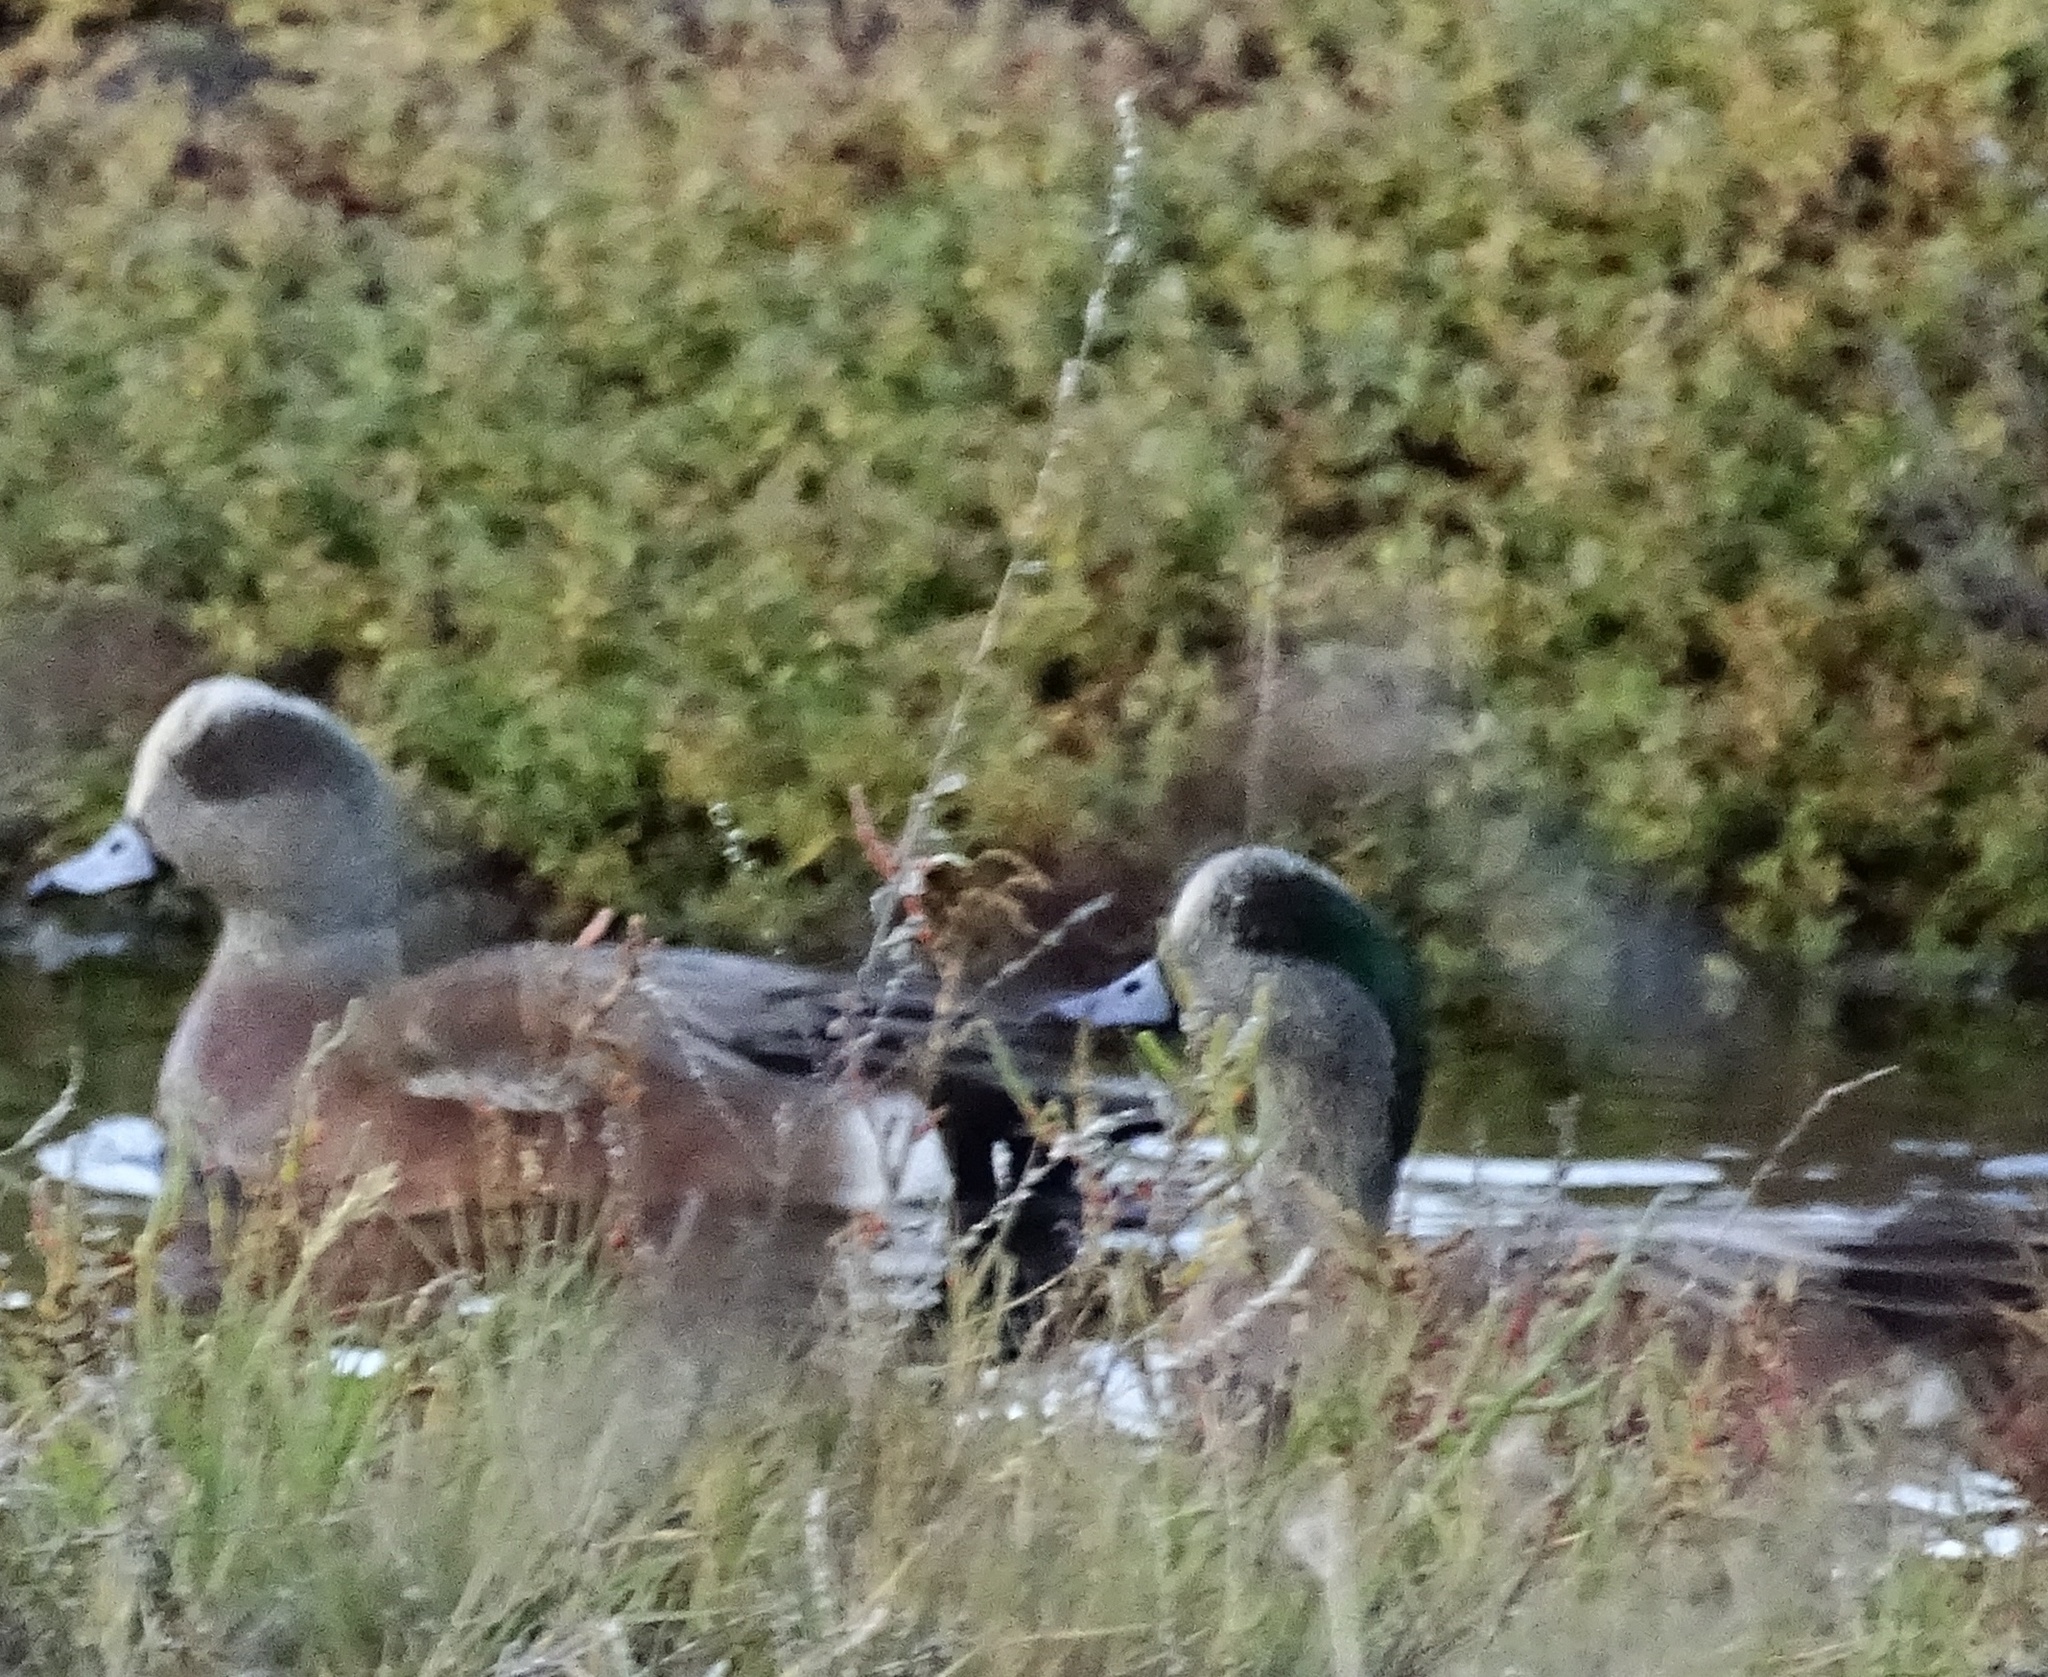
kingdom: Animalia
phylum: Chordata
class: Aves
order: Anseriformes
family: Anatidae
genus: Mareca
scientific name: Mareca americana
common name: American wigeon
